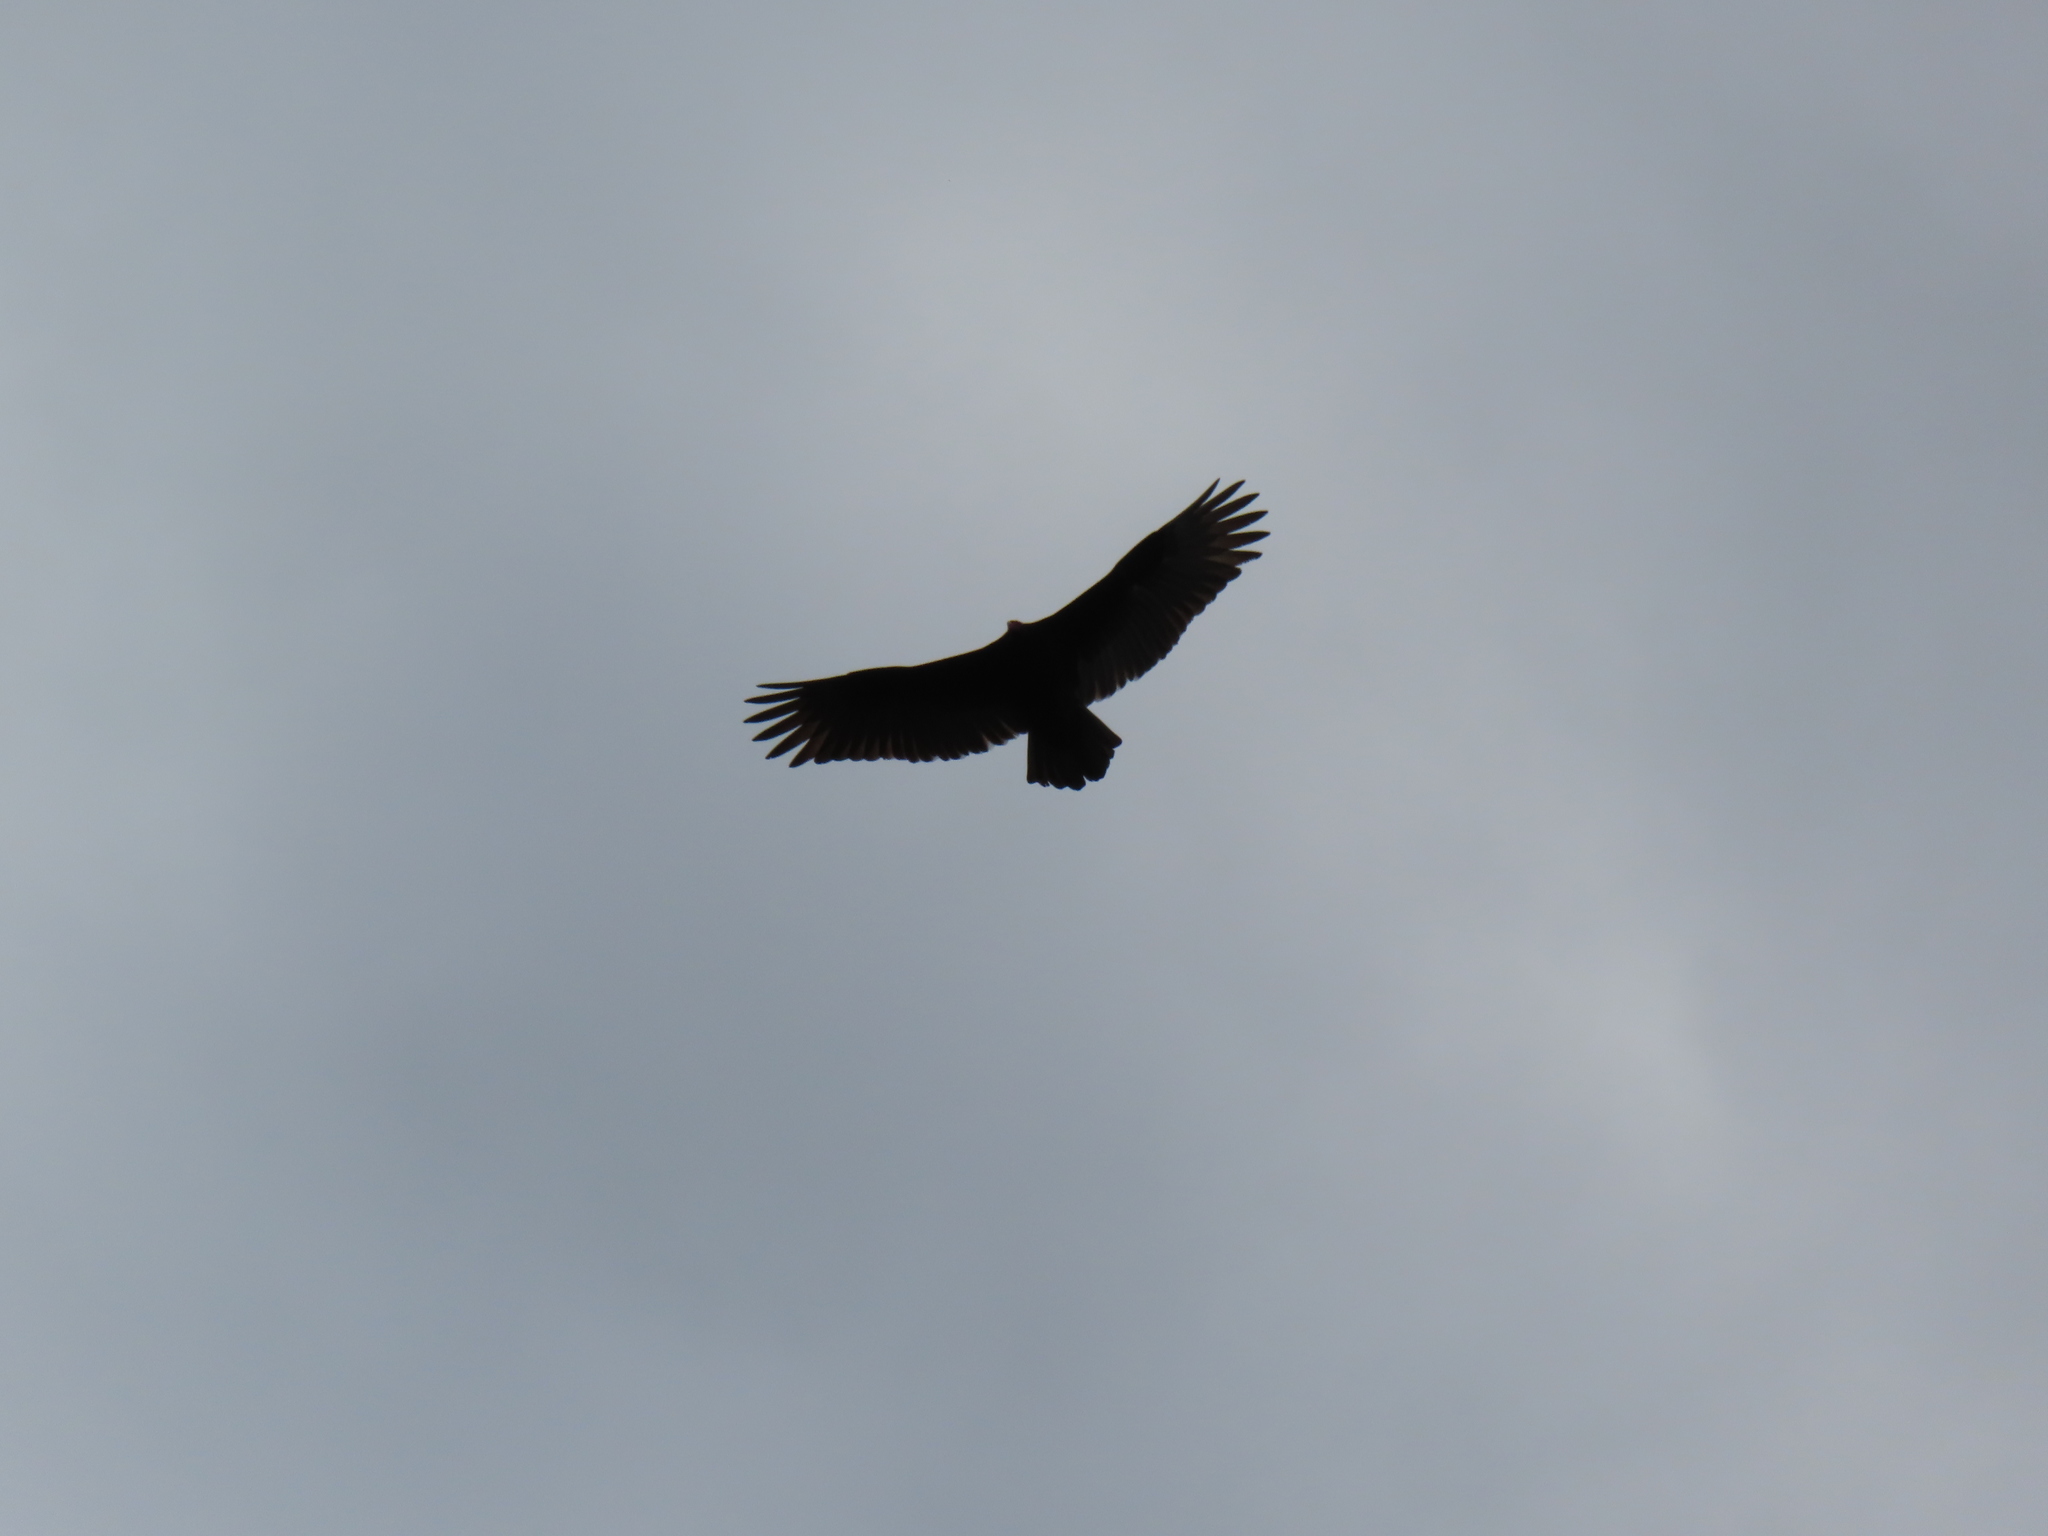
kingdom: Animalia
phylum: Chordata
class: Aves
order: Accipitriformes
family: Cathartidae
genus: Cathartes
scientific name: Cathartes aura
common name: Turkey vulture
